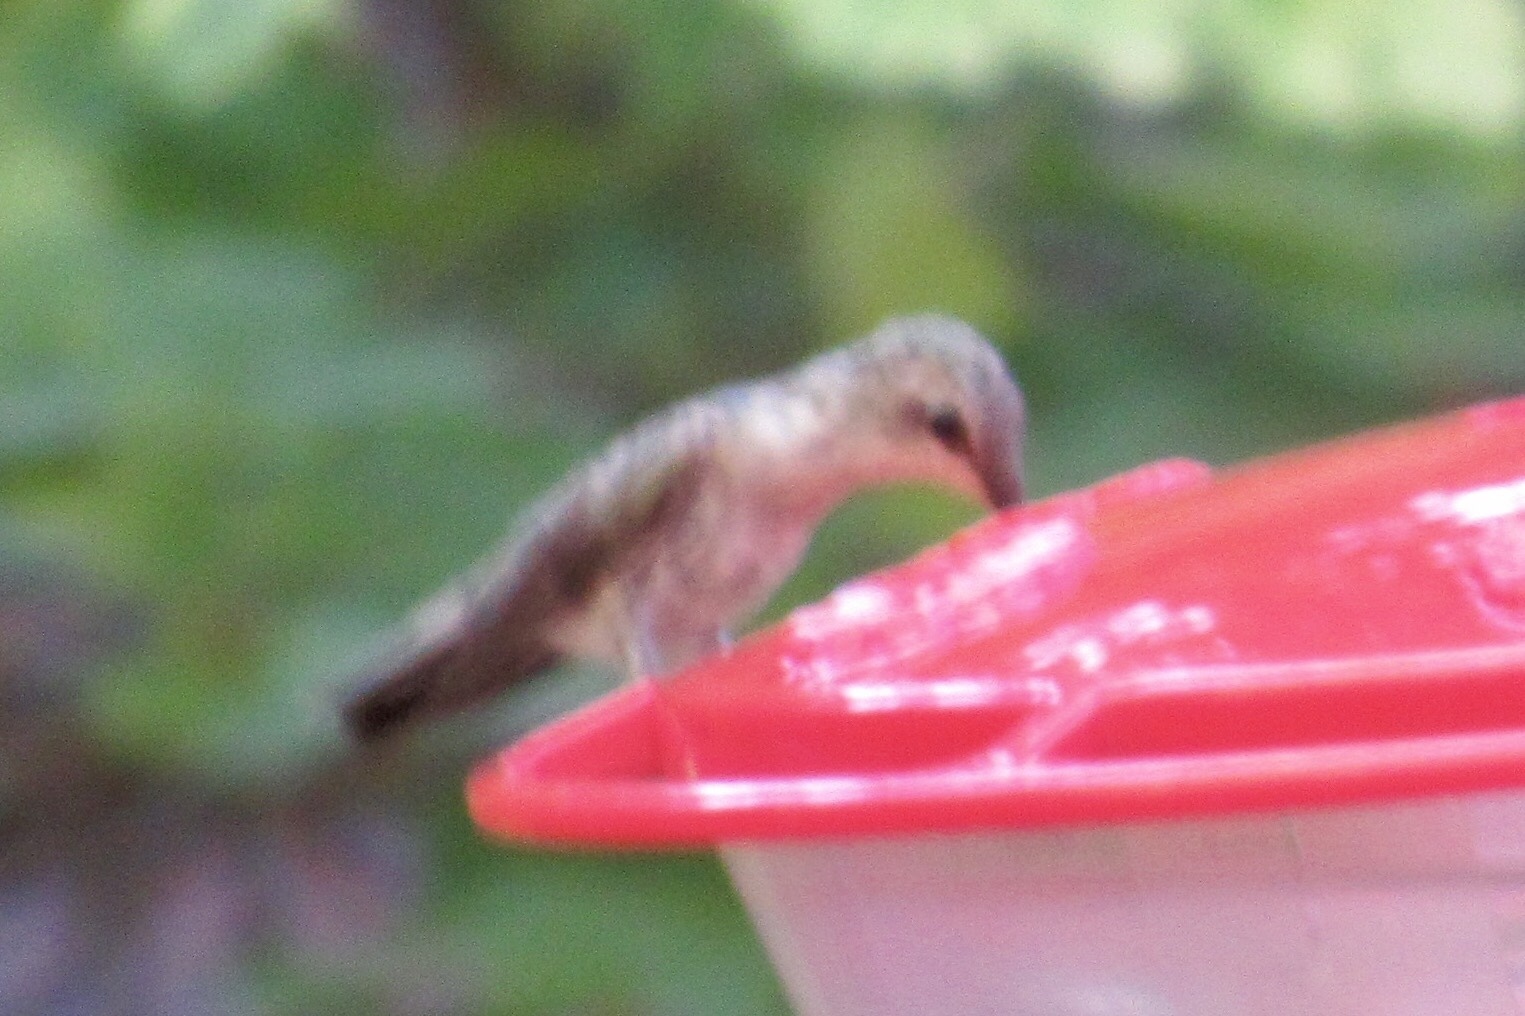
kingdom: Animalia
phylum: Chordata
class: Aves
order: Apodiformes
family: Trochilidae
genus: Archilochus
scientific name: Archilochus alexandri
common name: Black-chinned hummingbird
